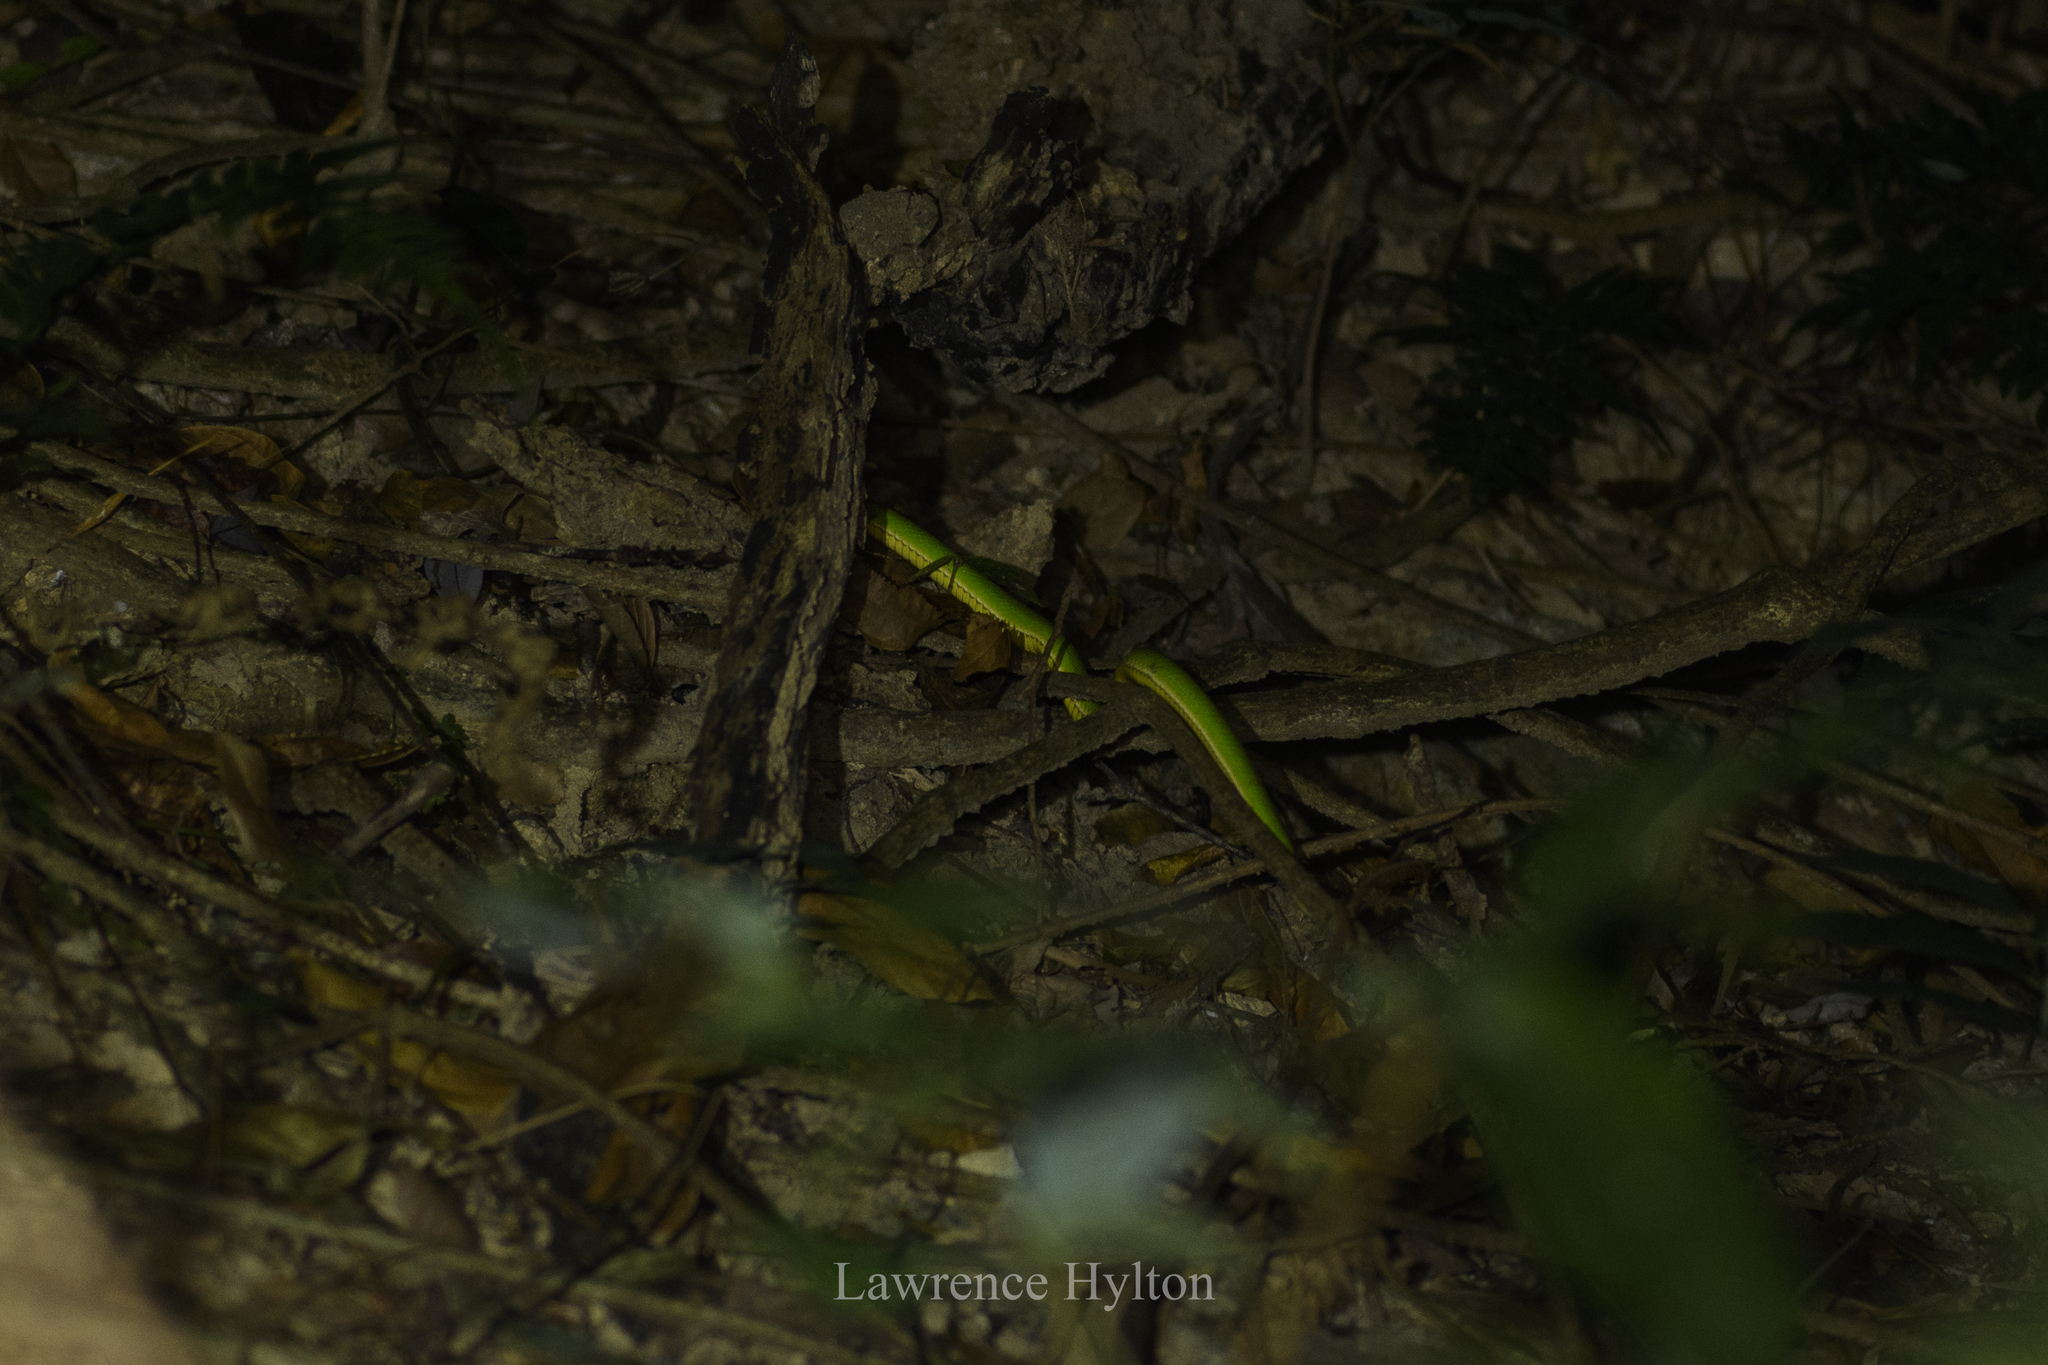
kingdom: Animalia
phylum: Chordata
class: Squamata
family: Viperidae
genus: Trimeresurus
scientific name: Trimeresurus albolabris
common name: White-lipped pitviper
